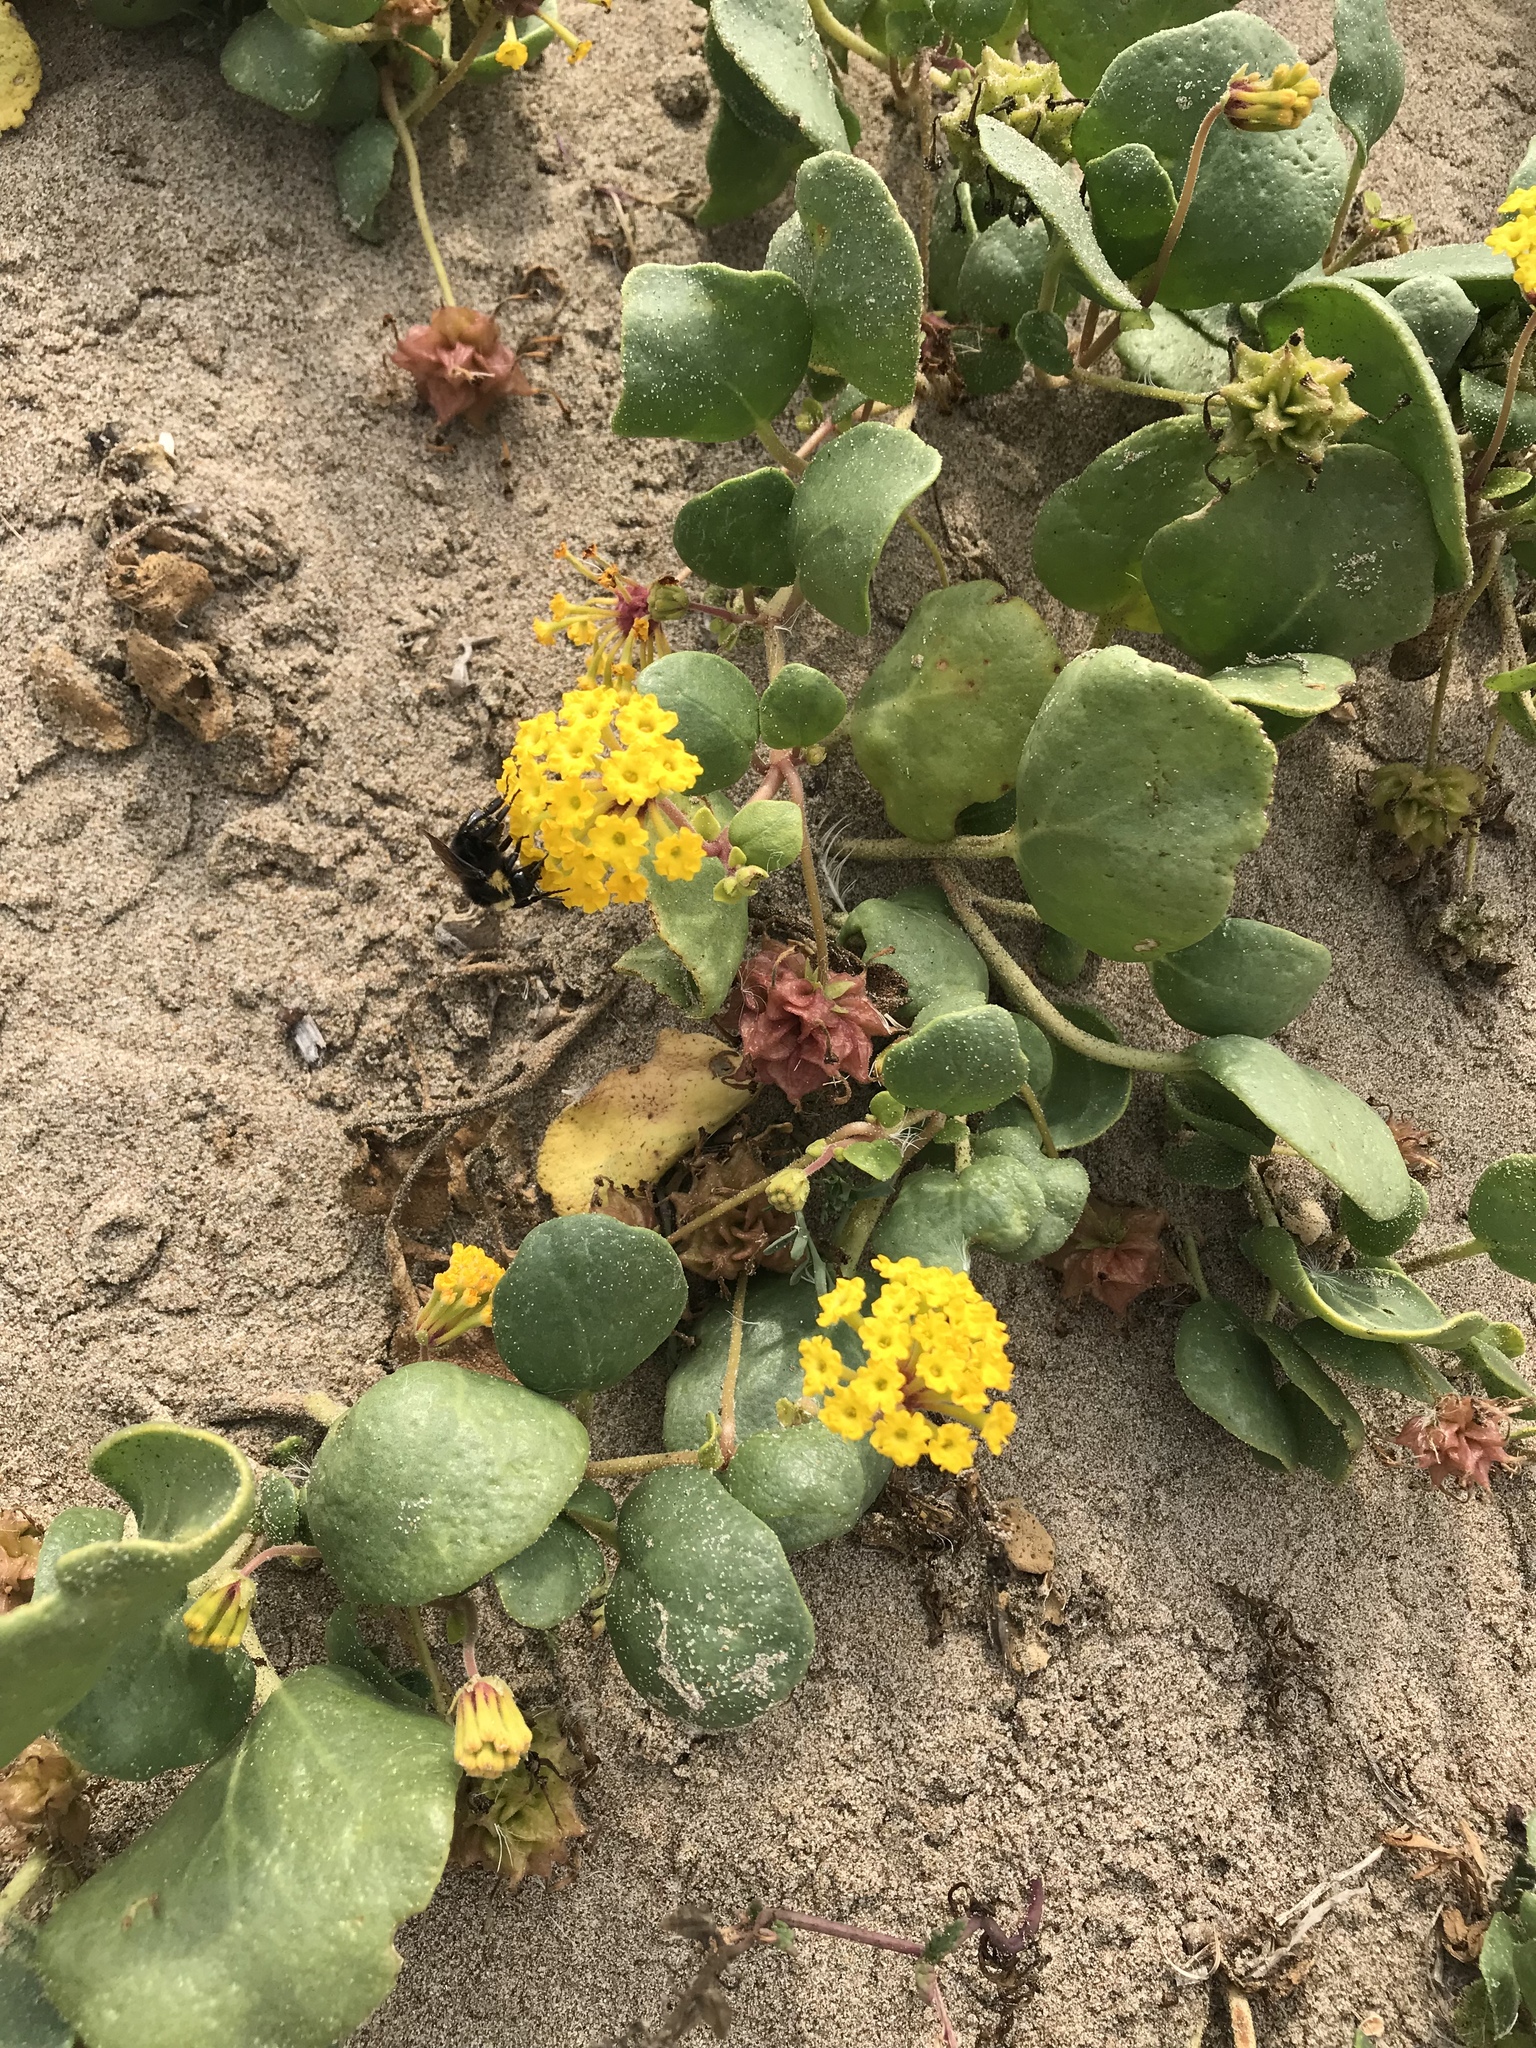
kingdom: Plantae
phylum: Tracheophyta
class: Magnoliopsida
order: Caryophyllales
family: Nyctaginaceae
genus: Abronia
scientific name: Abronia latifolia
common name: Yellow sand-verbena
